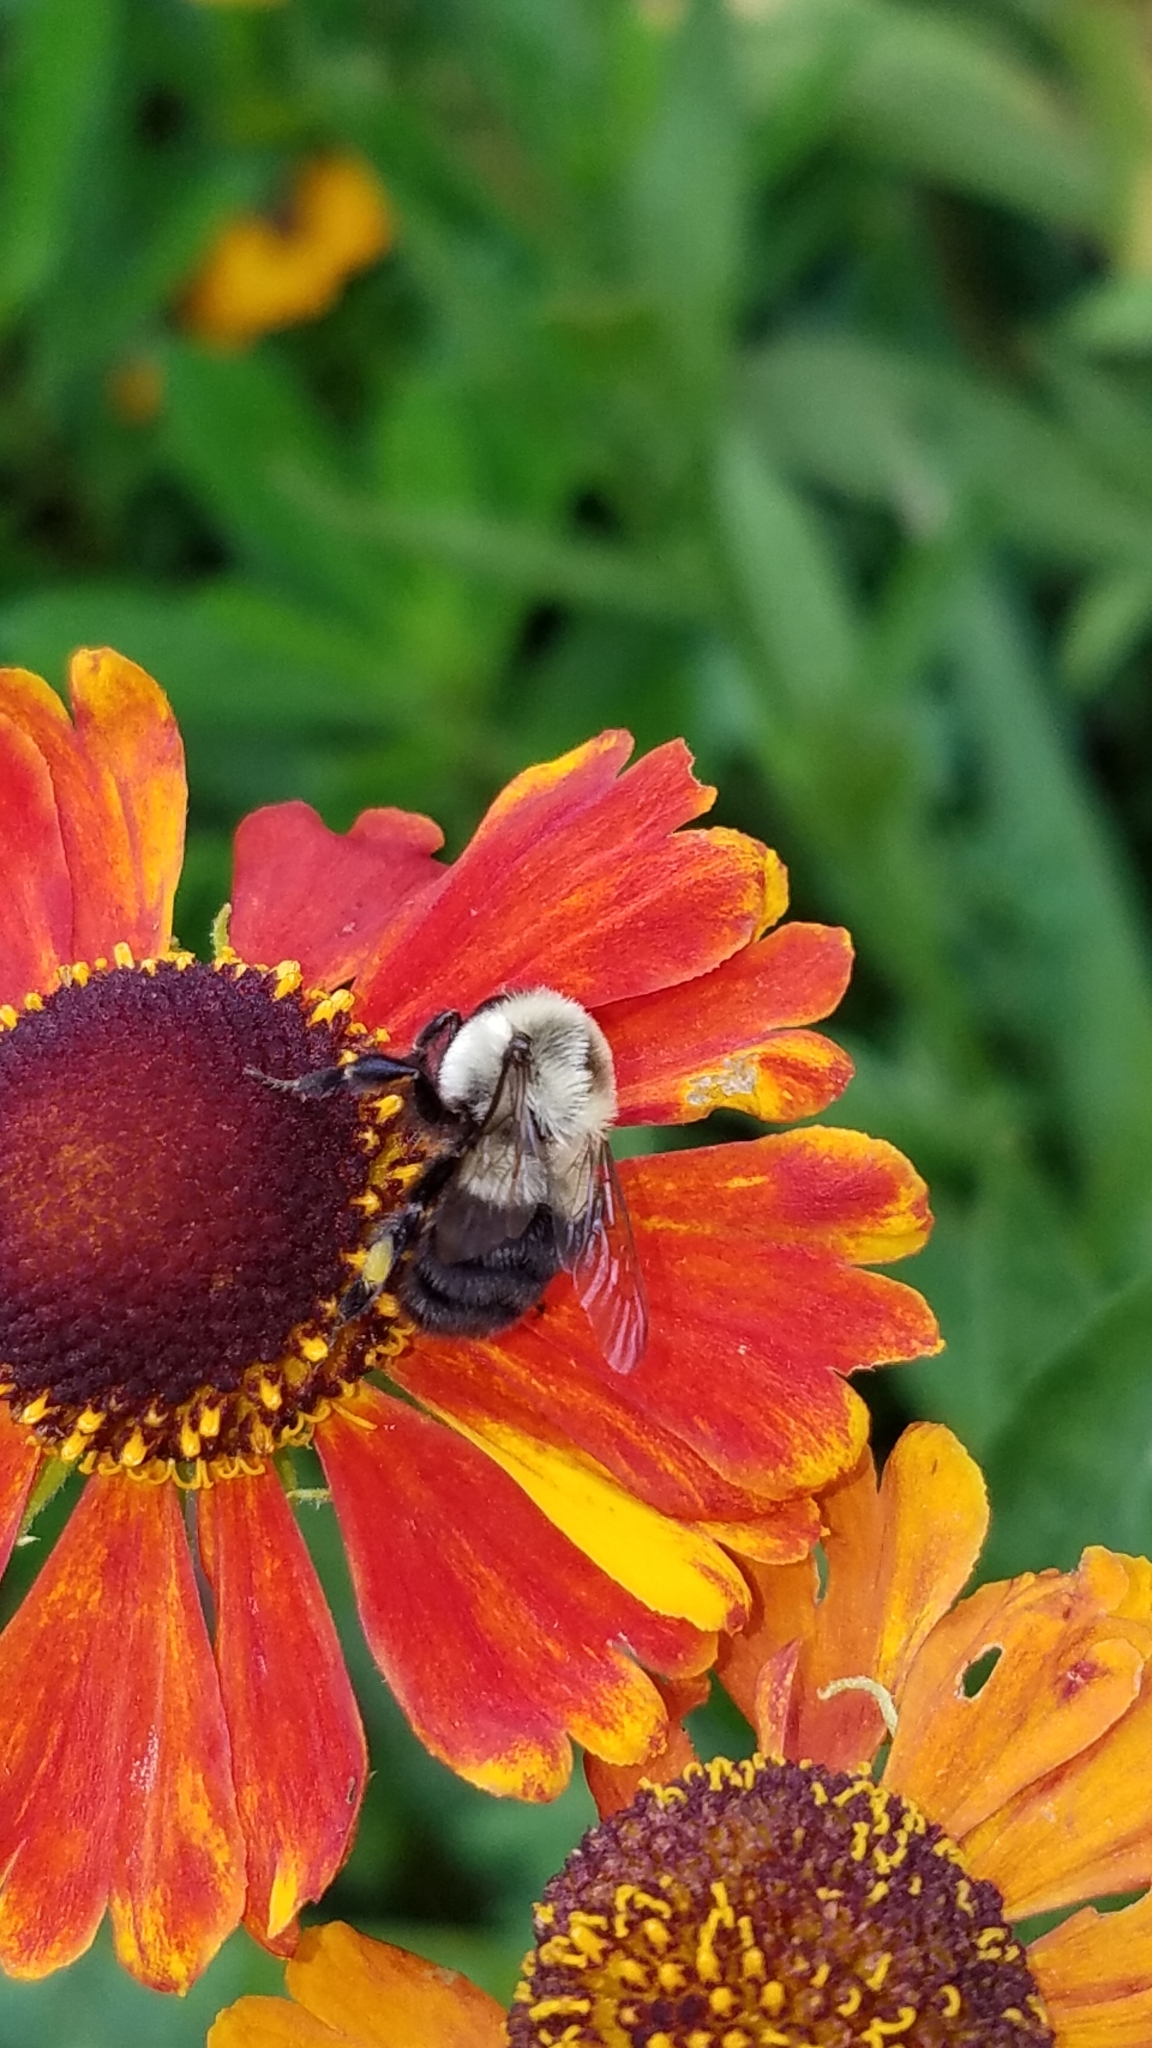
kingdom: Animalia
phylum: Arthropoda
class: Insecta
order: Hymenoptera
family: Apidae
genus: Bombus
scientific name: Bombus impatiens
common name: Common eastern bumble bee
